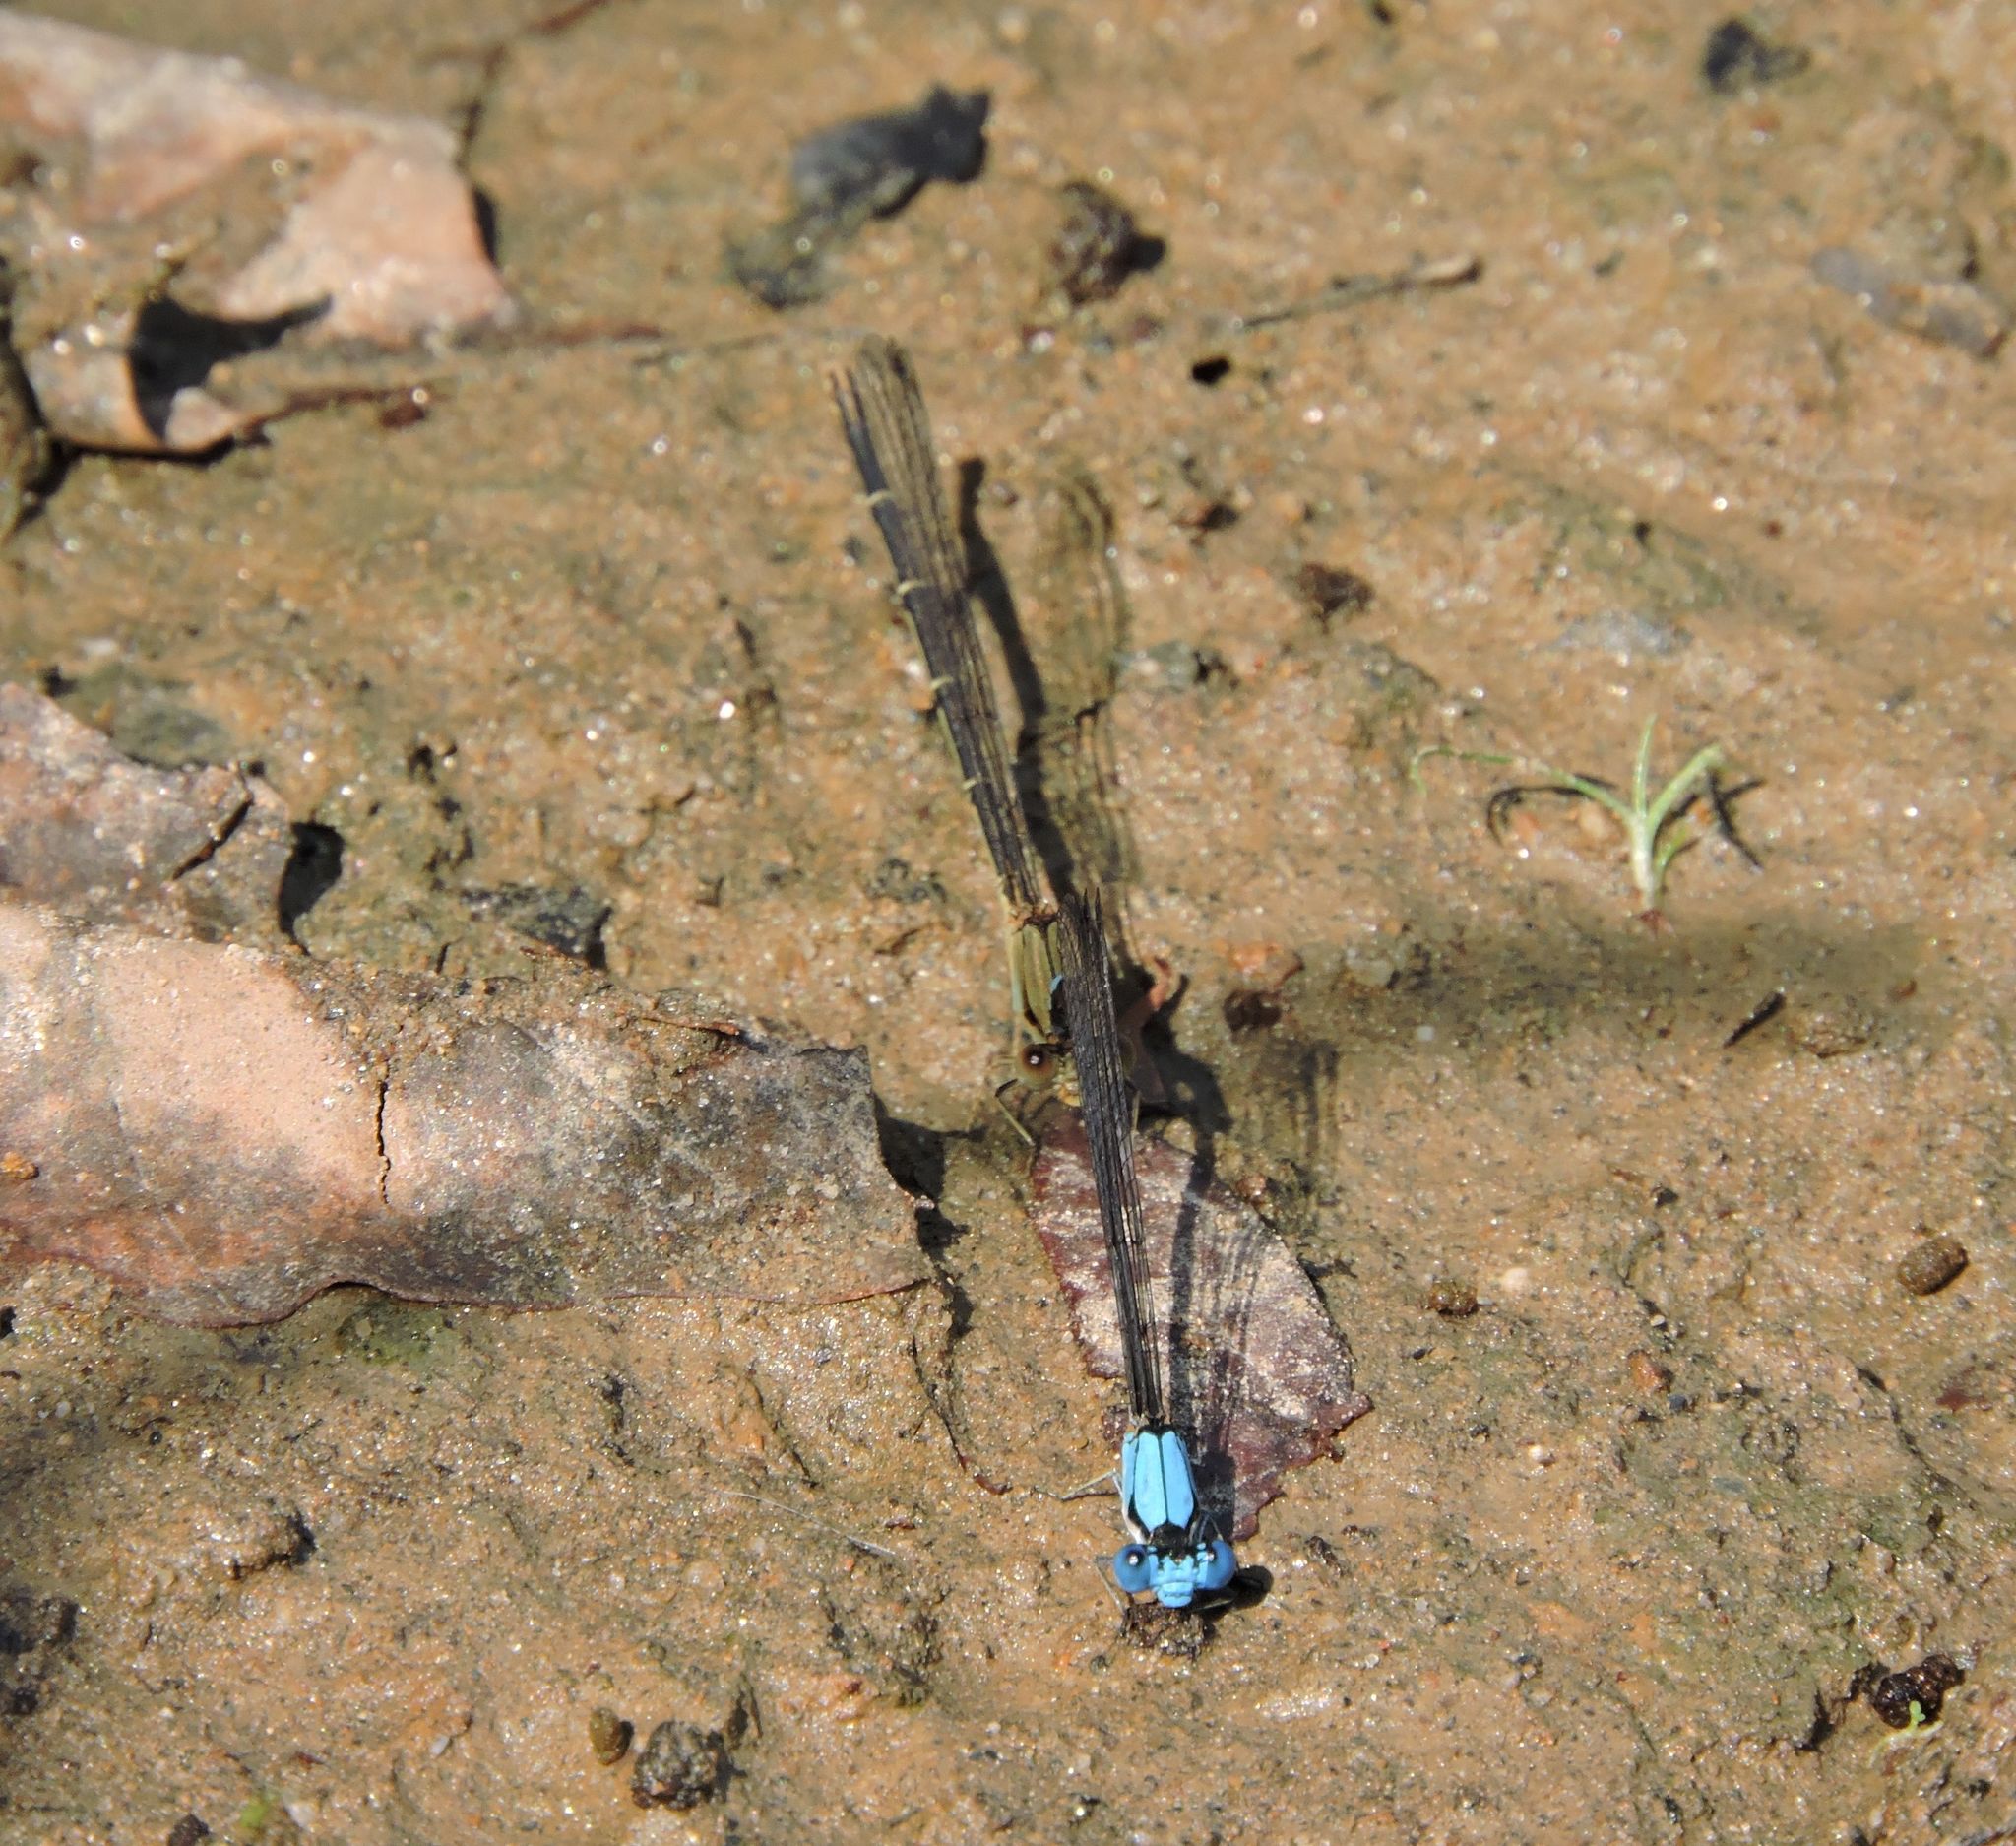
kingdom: Animalia
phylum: Arthropoda
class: Insecta
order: Odonata
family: Coenagrionidae
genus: Argia
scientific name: Argia apicalis
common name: Blue-fronted dancer
